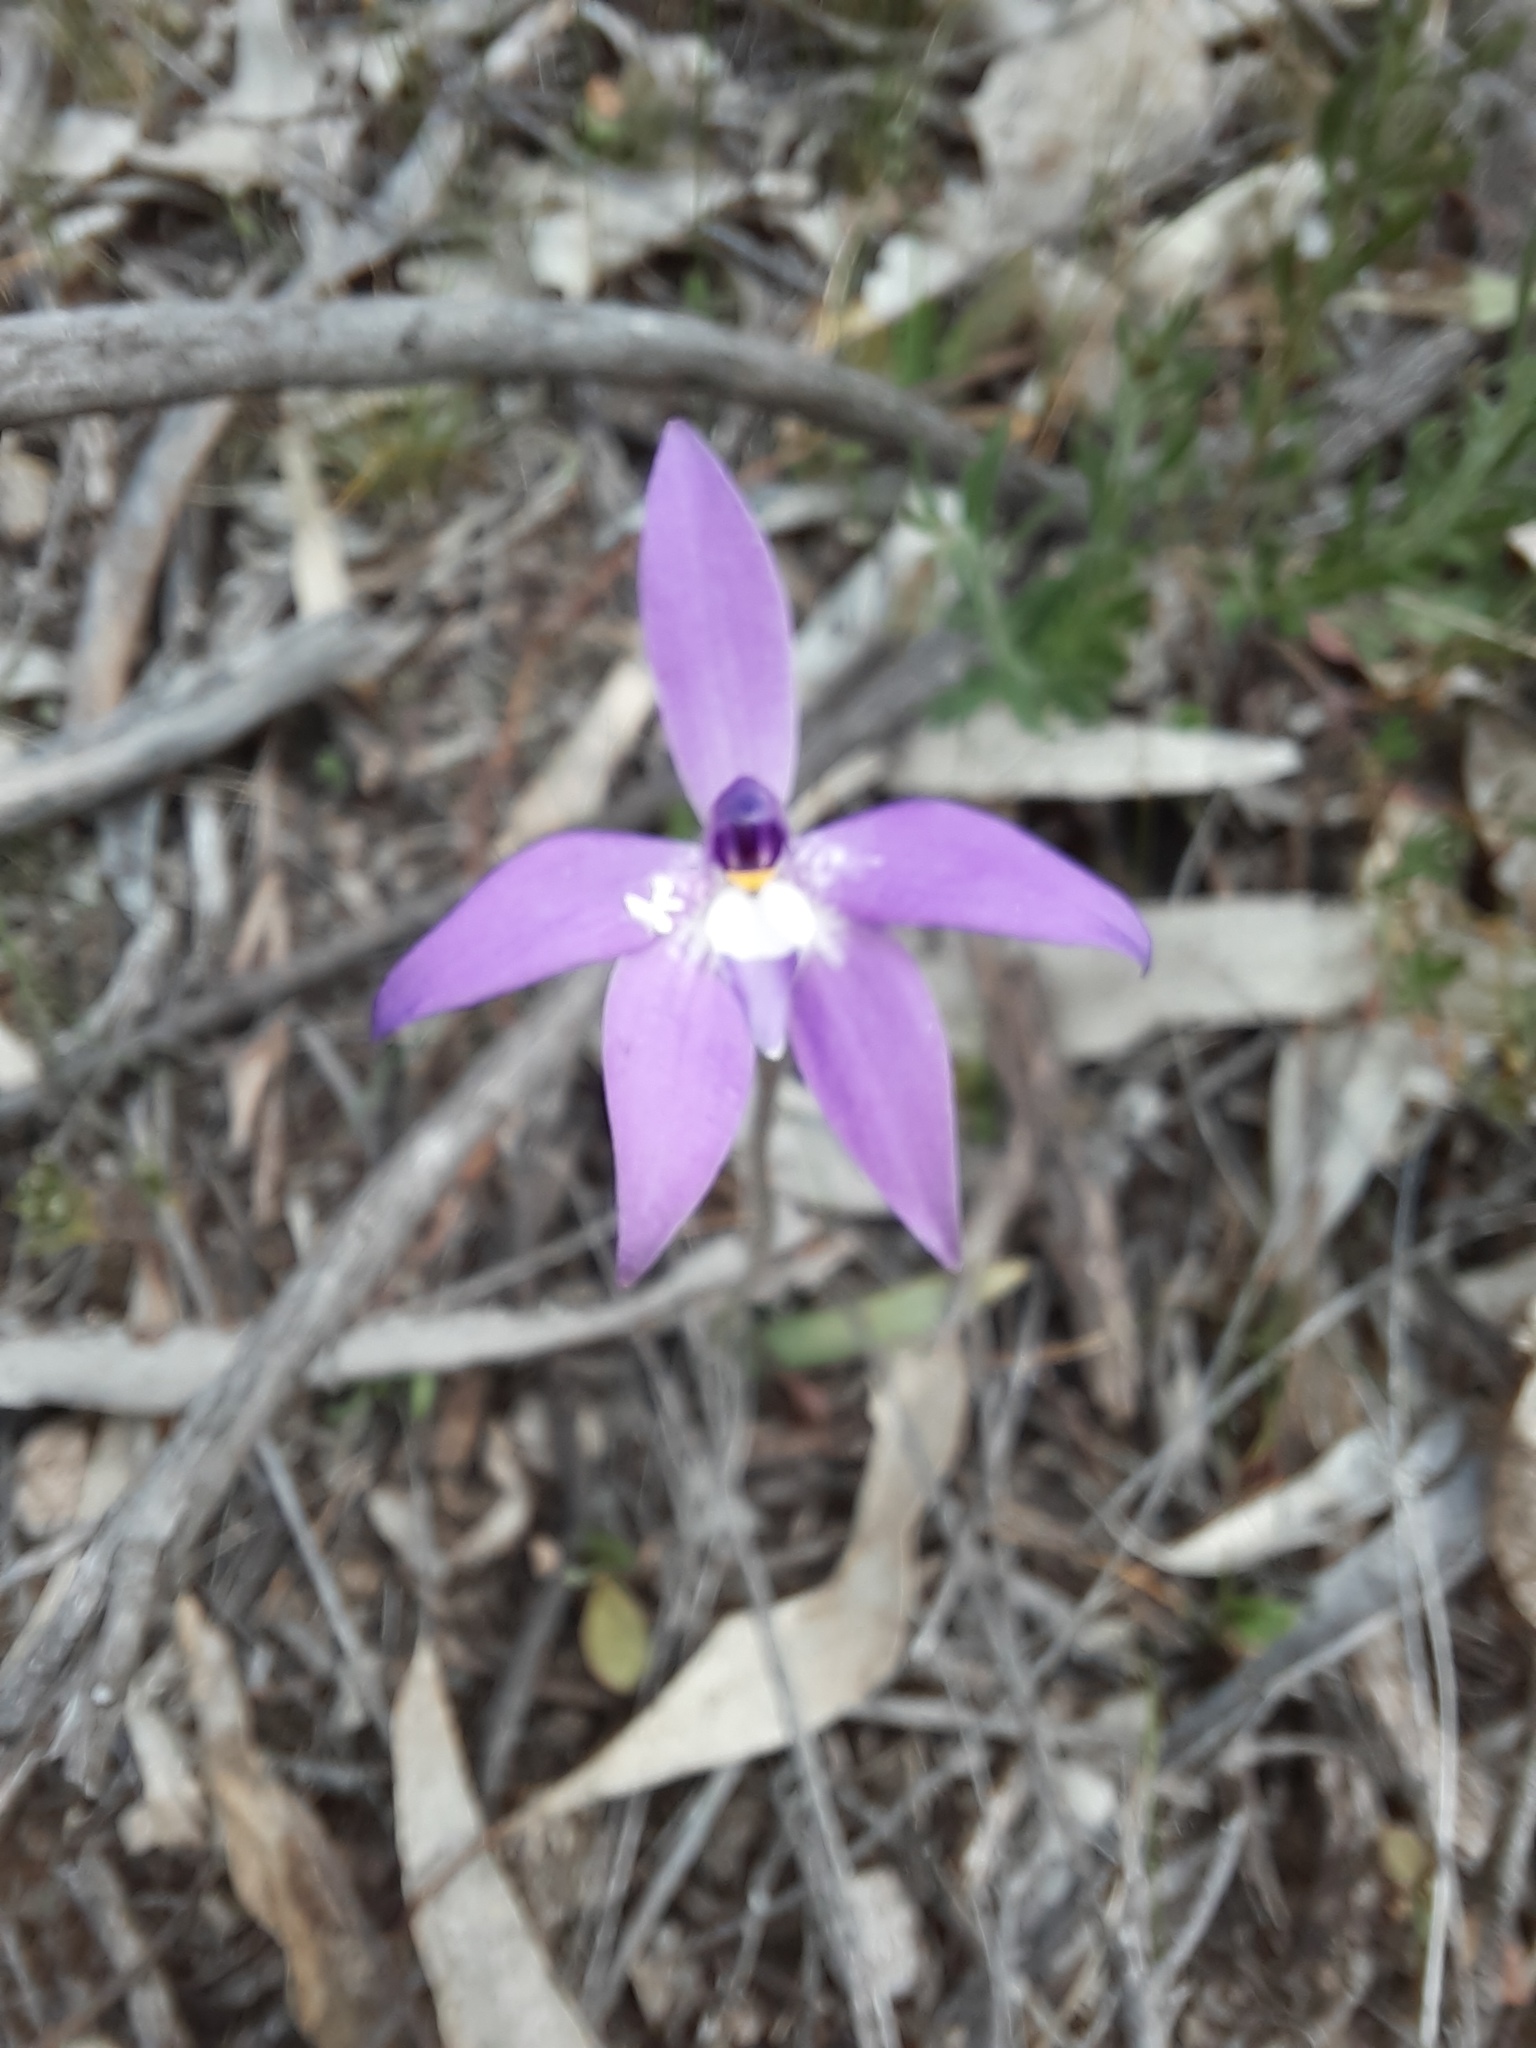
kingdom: Plantae
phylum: Tracheophyta
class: Liliopsida
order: Asparagales
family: Orchidaceae
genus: Caladenia
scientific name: Caladenia major
